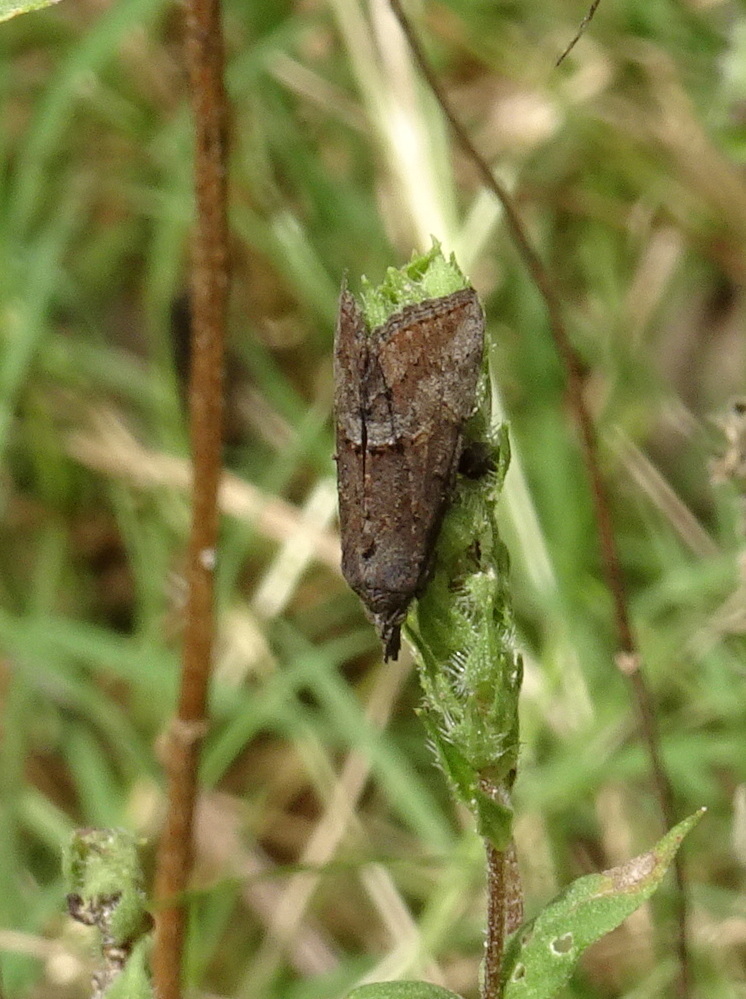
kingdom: Animalia
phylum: Arthropoda
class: Insecta
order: Lepidoptera
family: Erebidae
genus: Hypena
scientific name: Hypena scabra
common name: Green cloverworm
